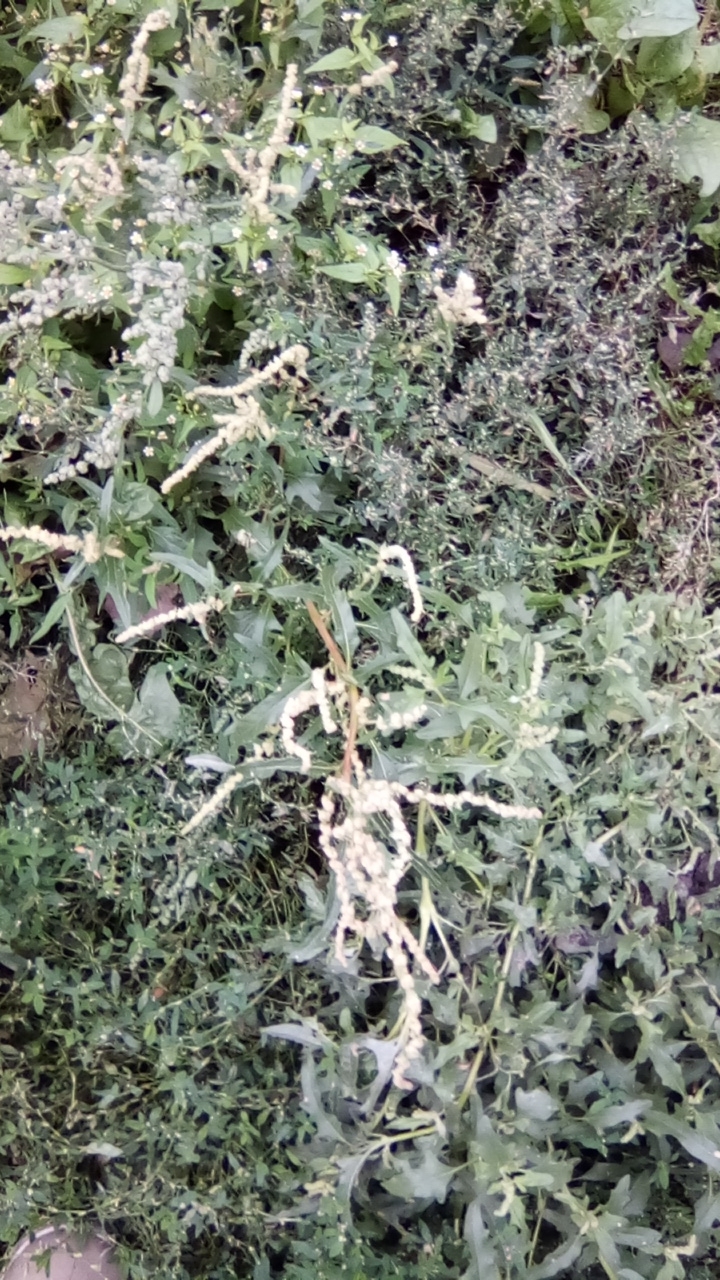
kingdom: Plantae
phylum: Tracheophyta
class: Magnoliopsida
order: Caryophyllales
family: Amaranthaceae
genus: Atriplex
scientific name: Atriplex tatarica
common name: Tatarian orache
